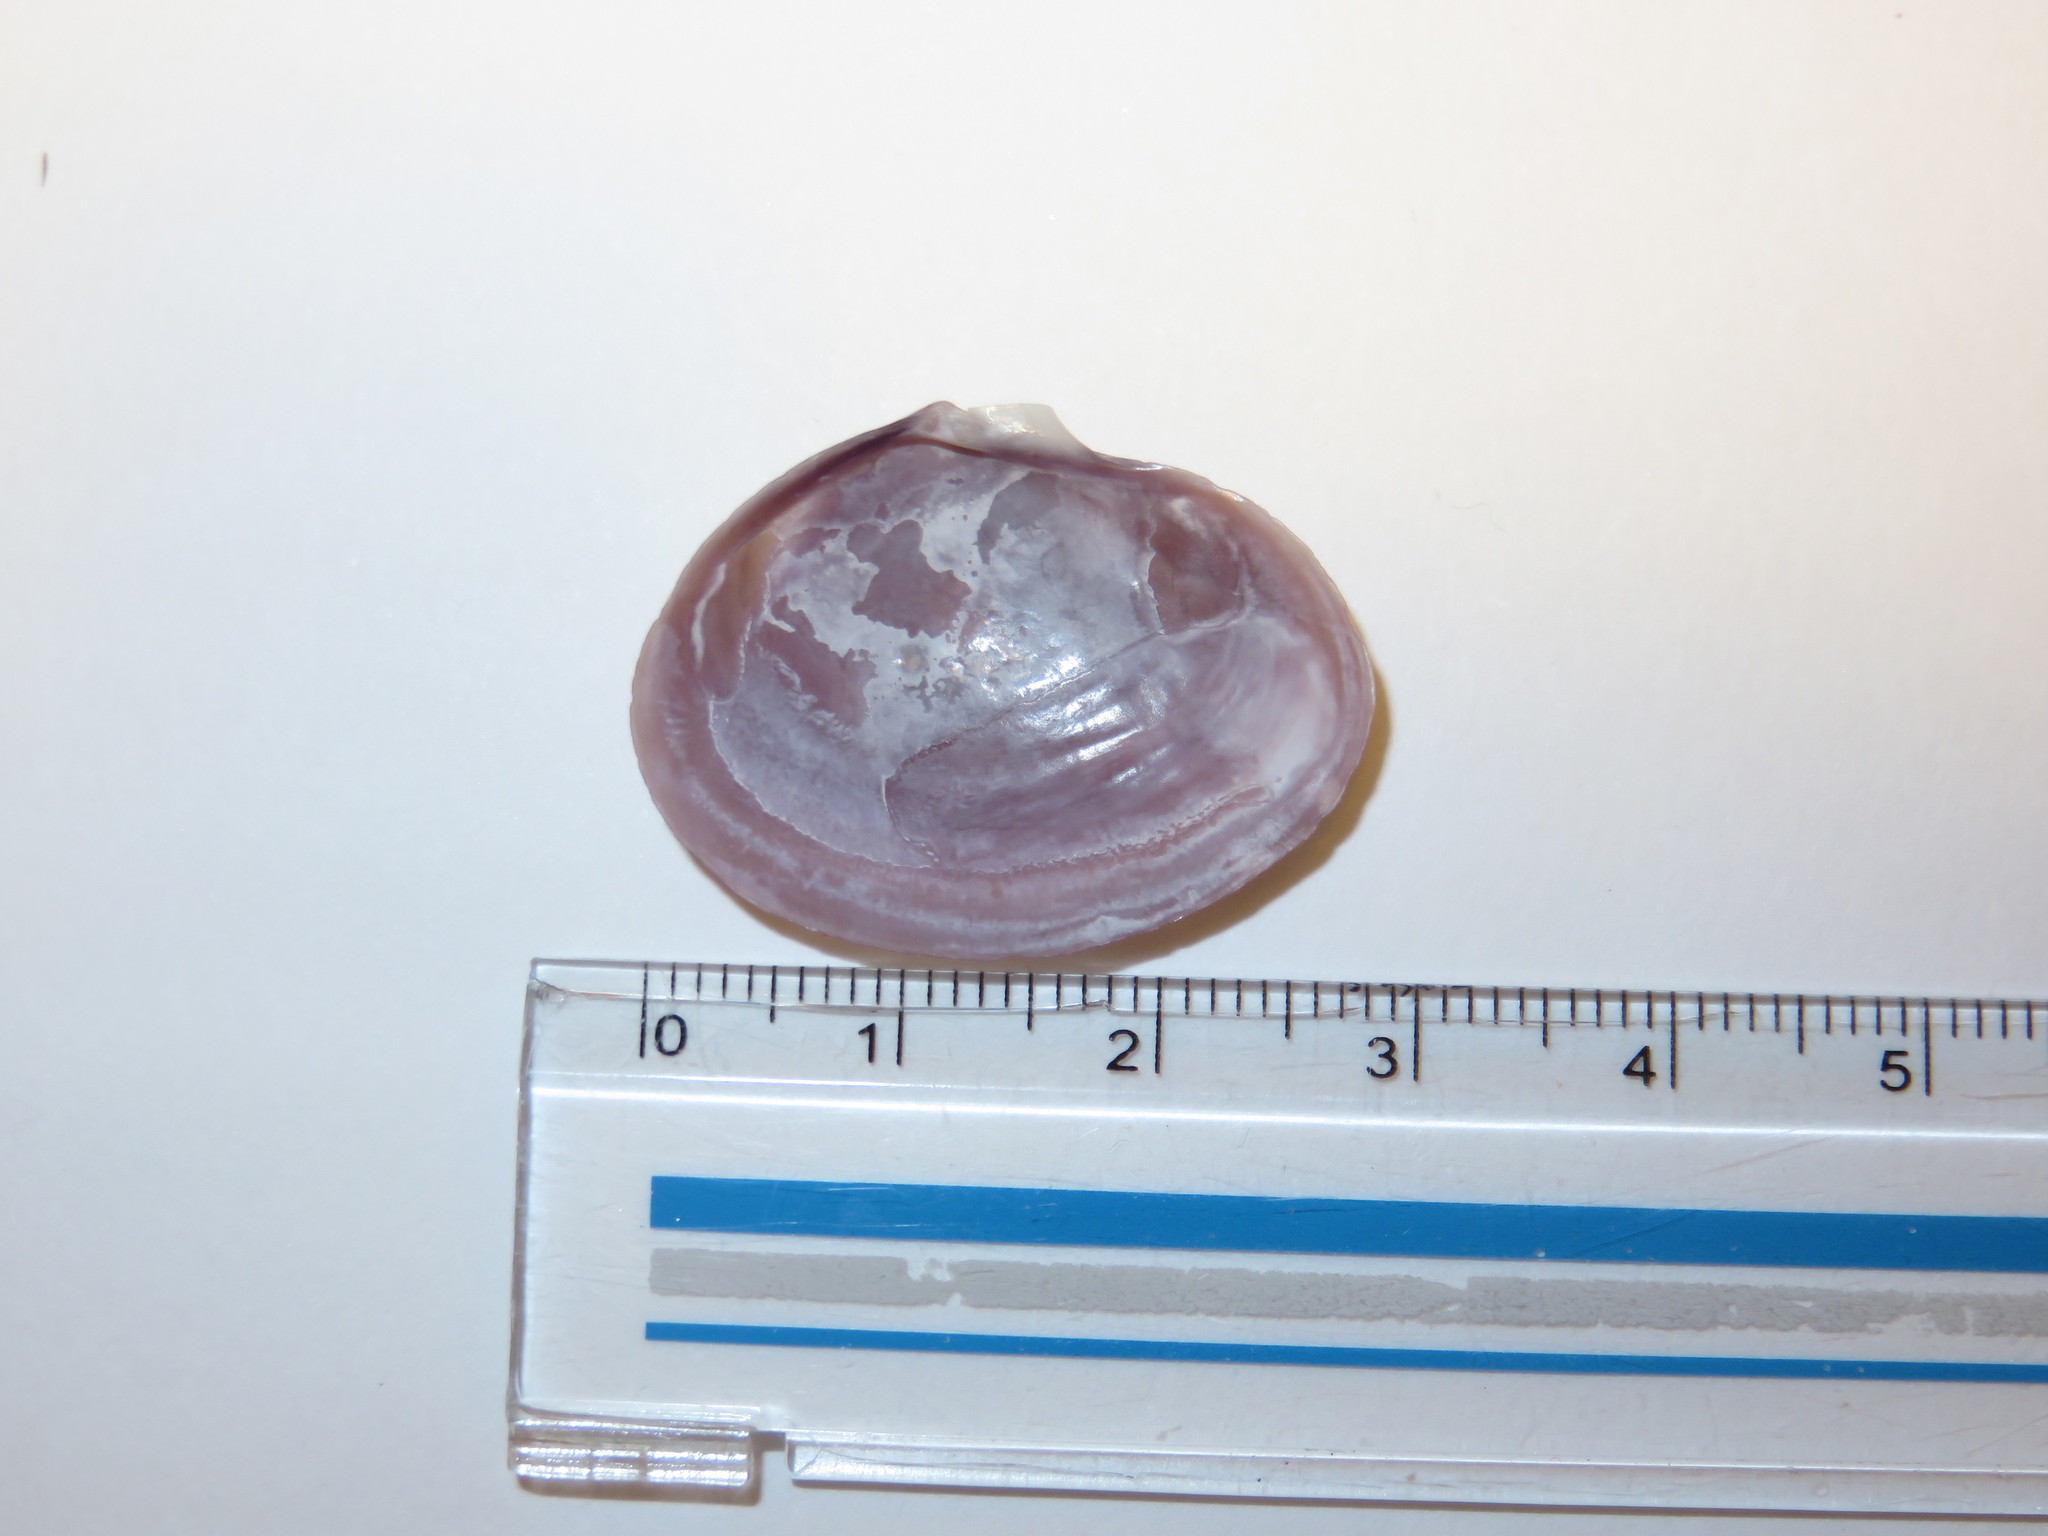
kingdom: Animalia
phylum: Mollusca
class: Bivalvia
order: Cardiida
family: Psammobiidae
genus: Nuttallia
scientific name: Nuttallia japonica
